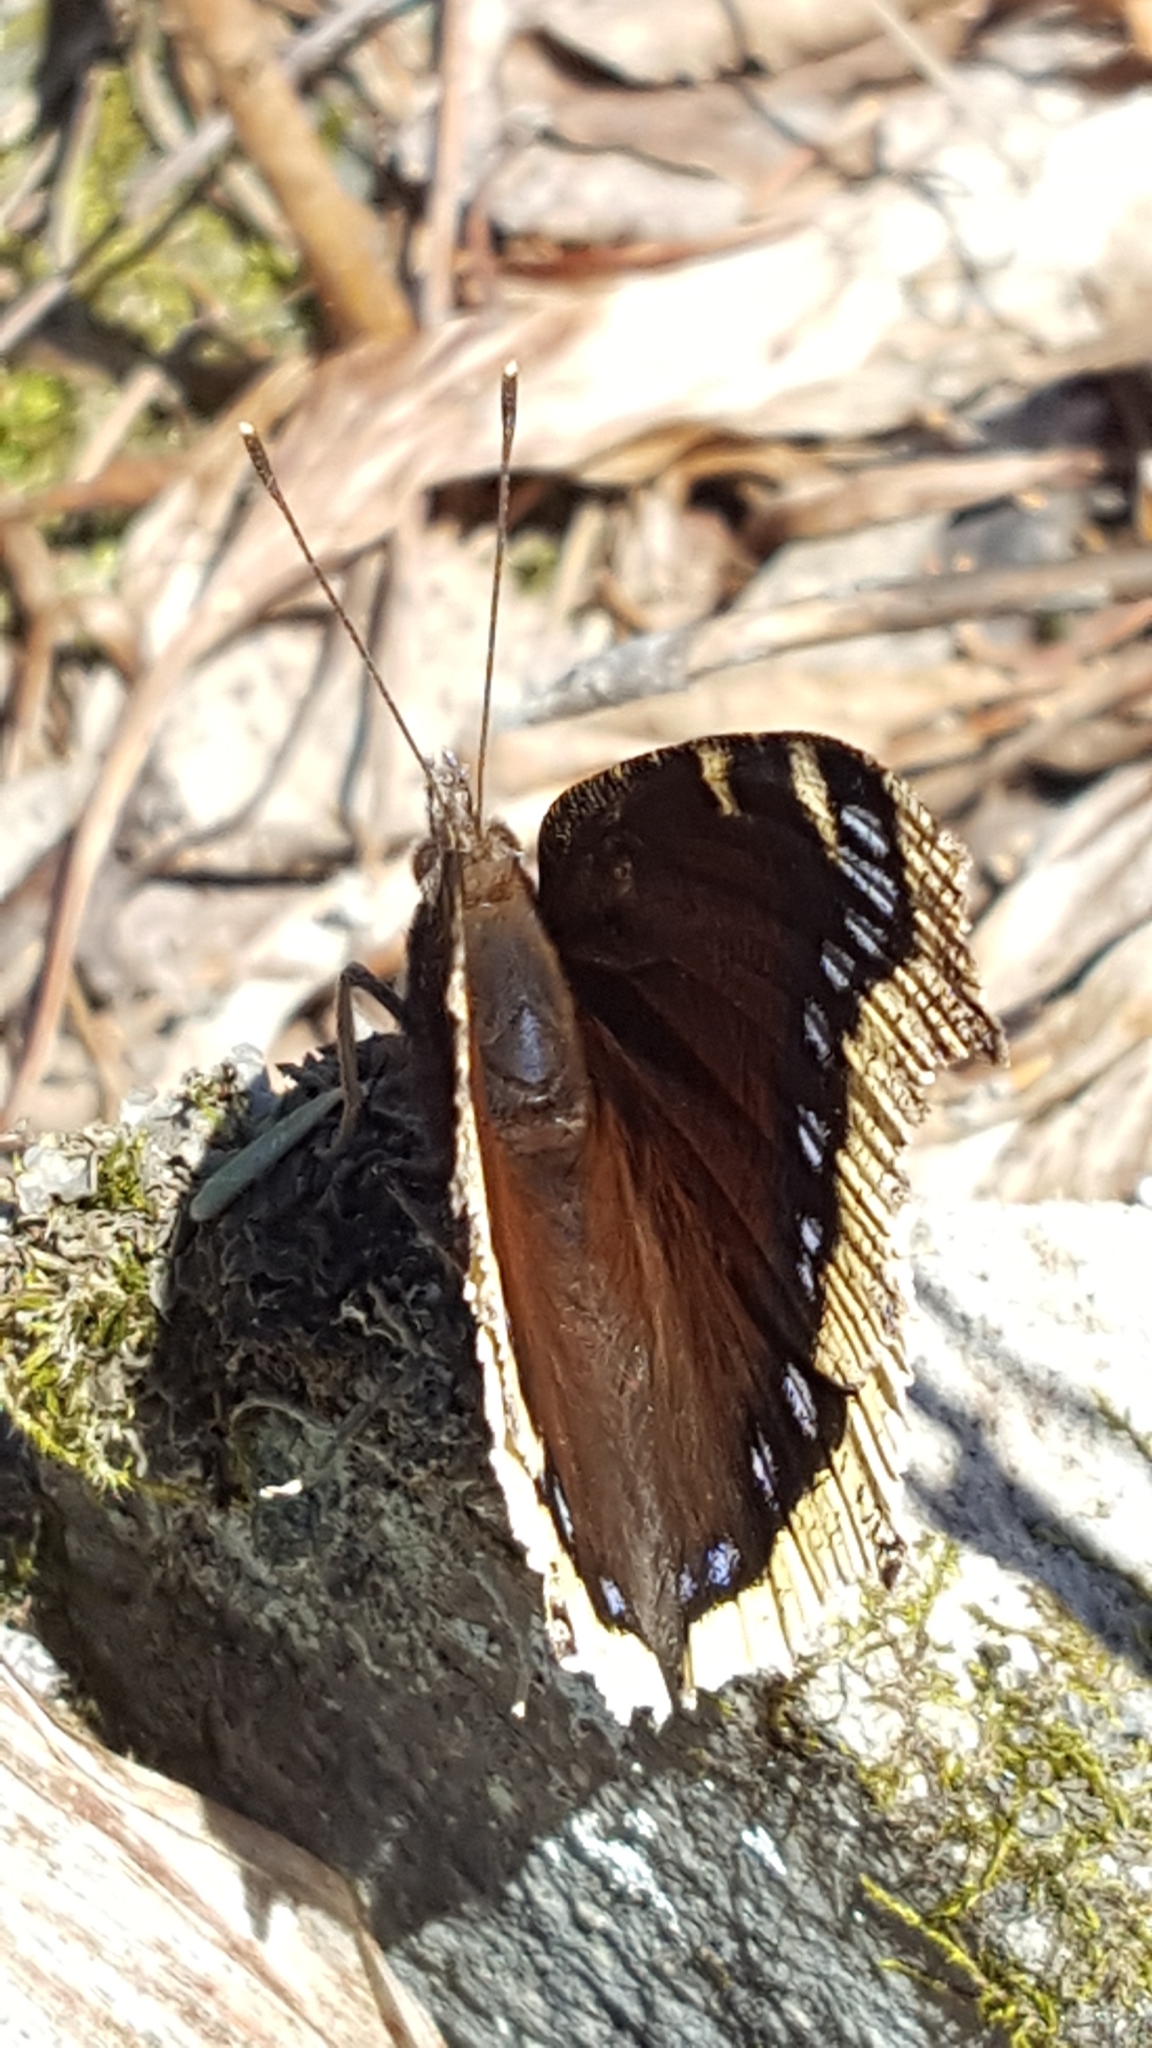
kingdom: Animalia
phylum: Arthropoda
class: Insecta
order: Lepidoptera
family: Nymphalidae
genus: Nymphalis
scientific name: Nymphalis antiopa
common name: Camberwell beauty
